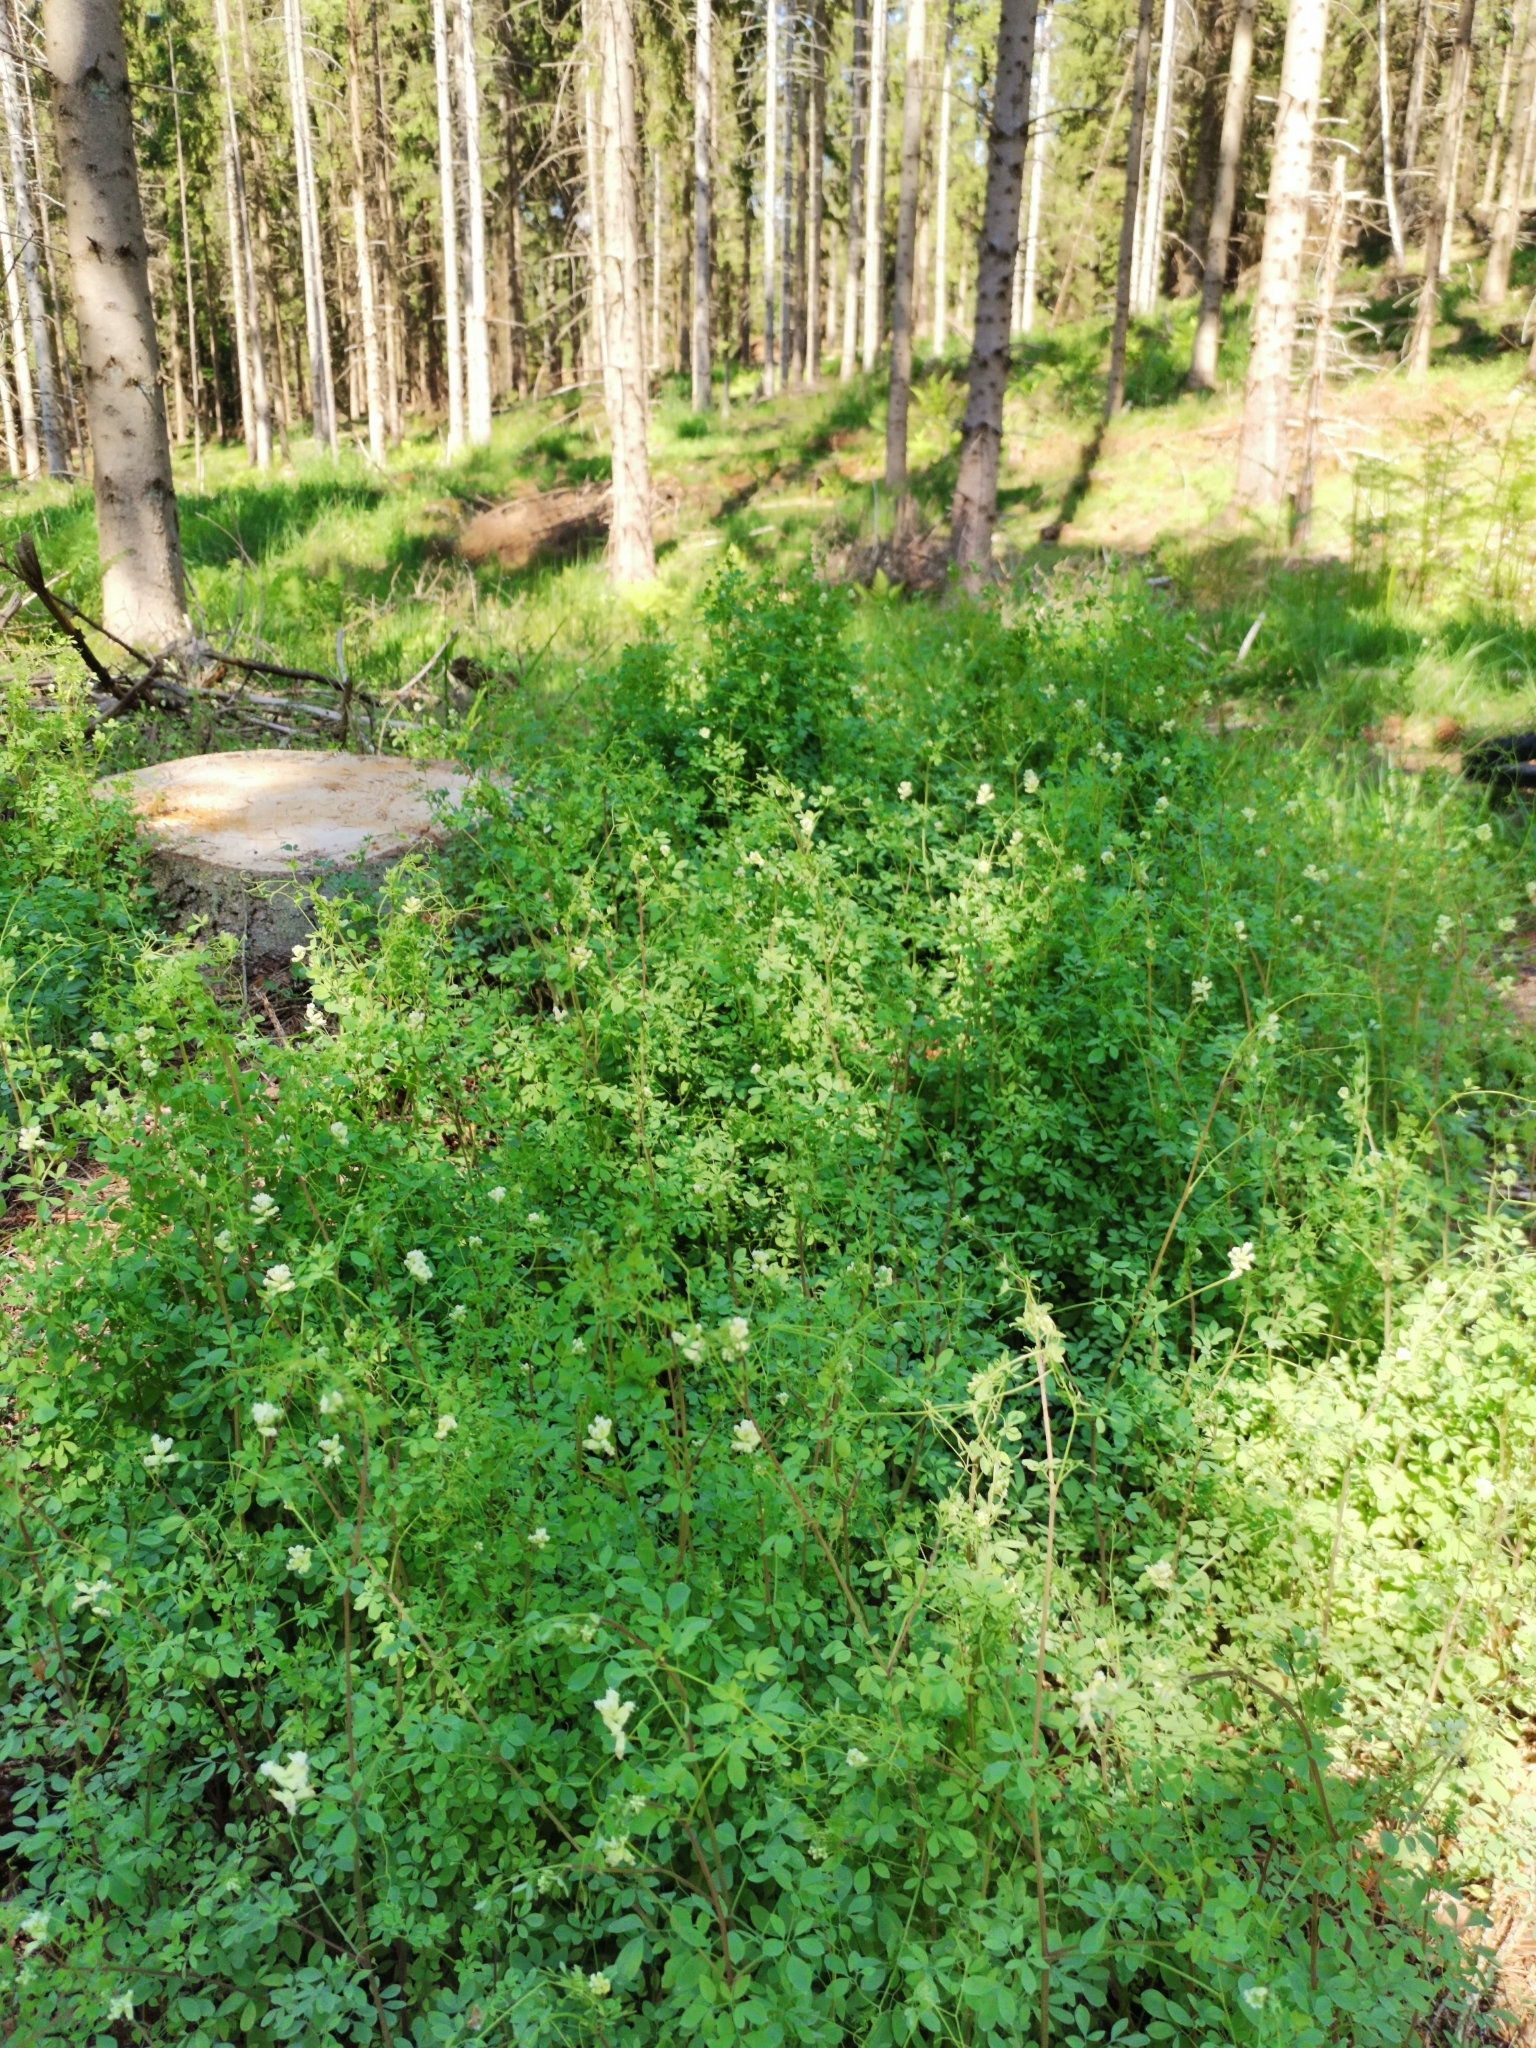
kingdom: Plantae
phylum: Tracheophyta
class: Magnoliopsida
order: Ranunculales
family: Papaveraceae
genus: Ceratocapnos
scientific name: Ceratocapnos claviculata
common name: Climbing corydalis
